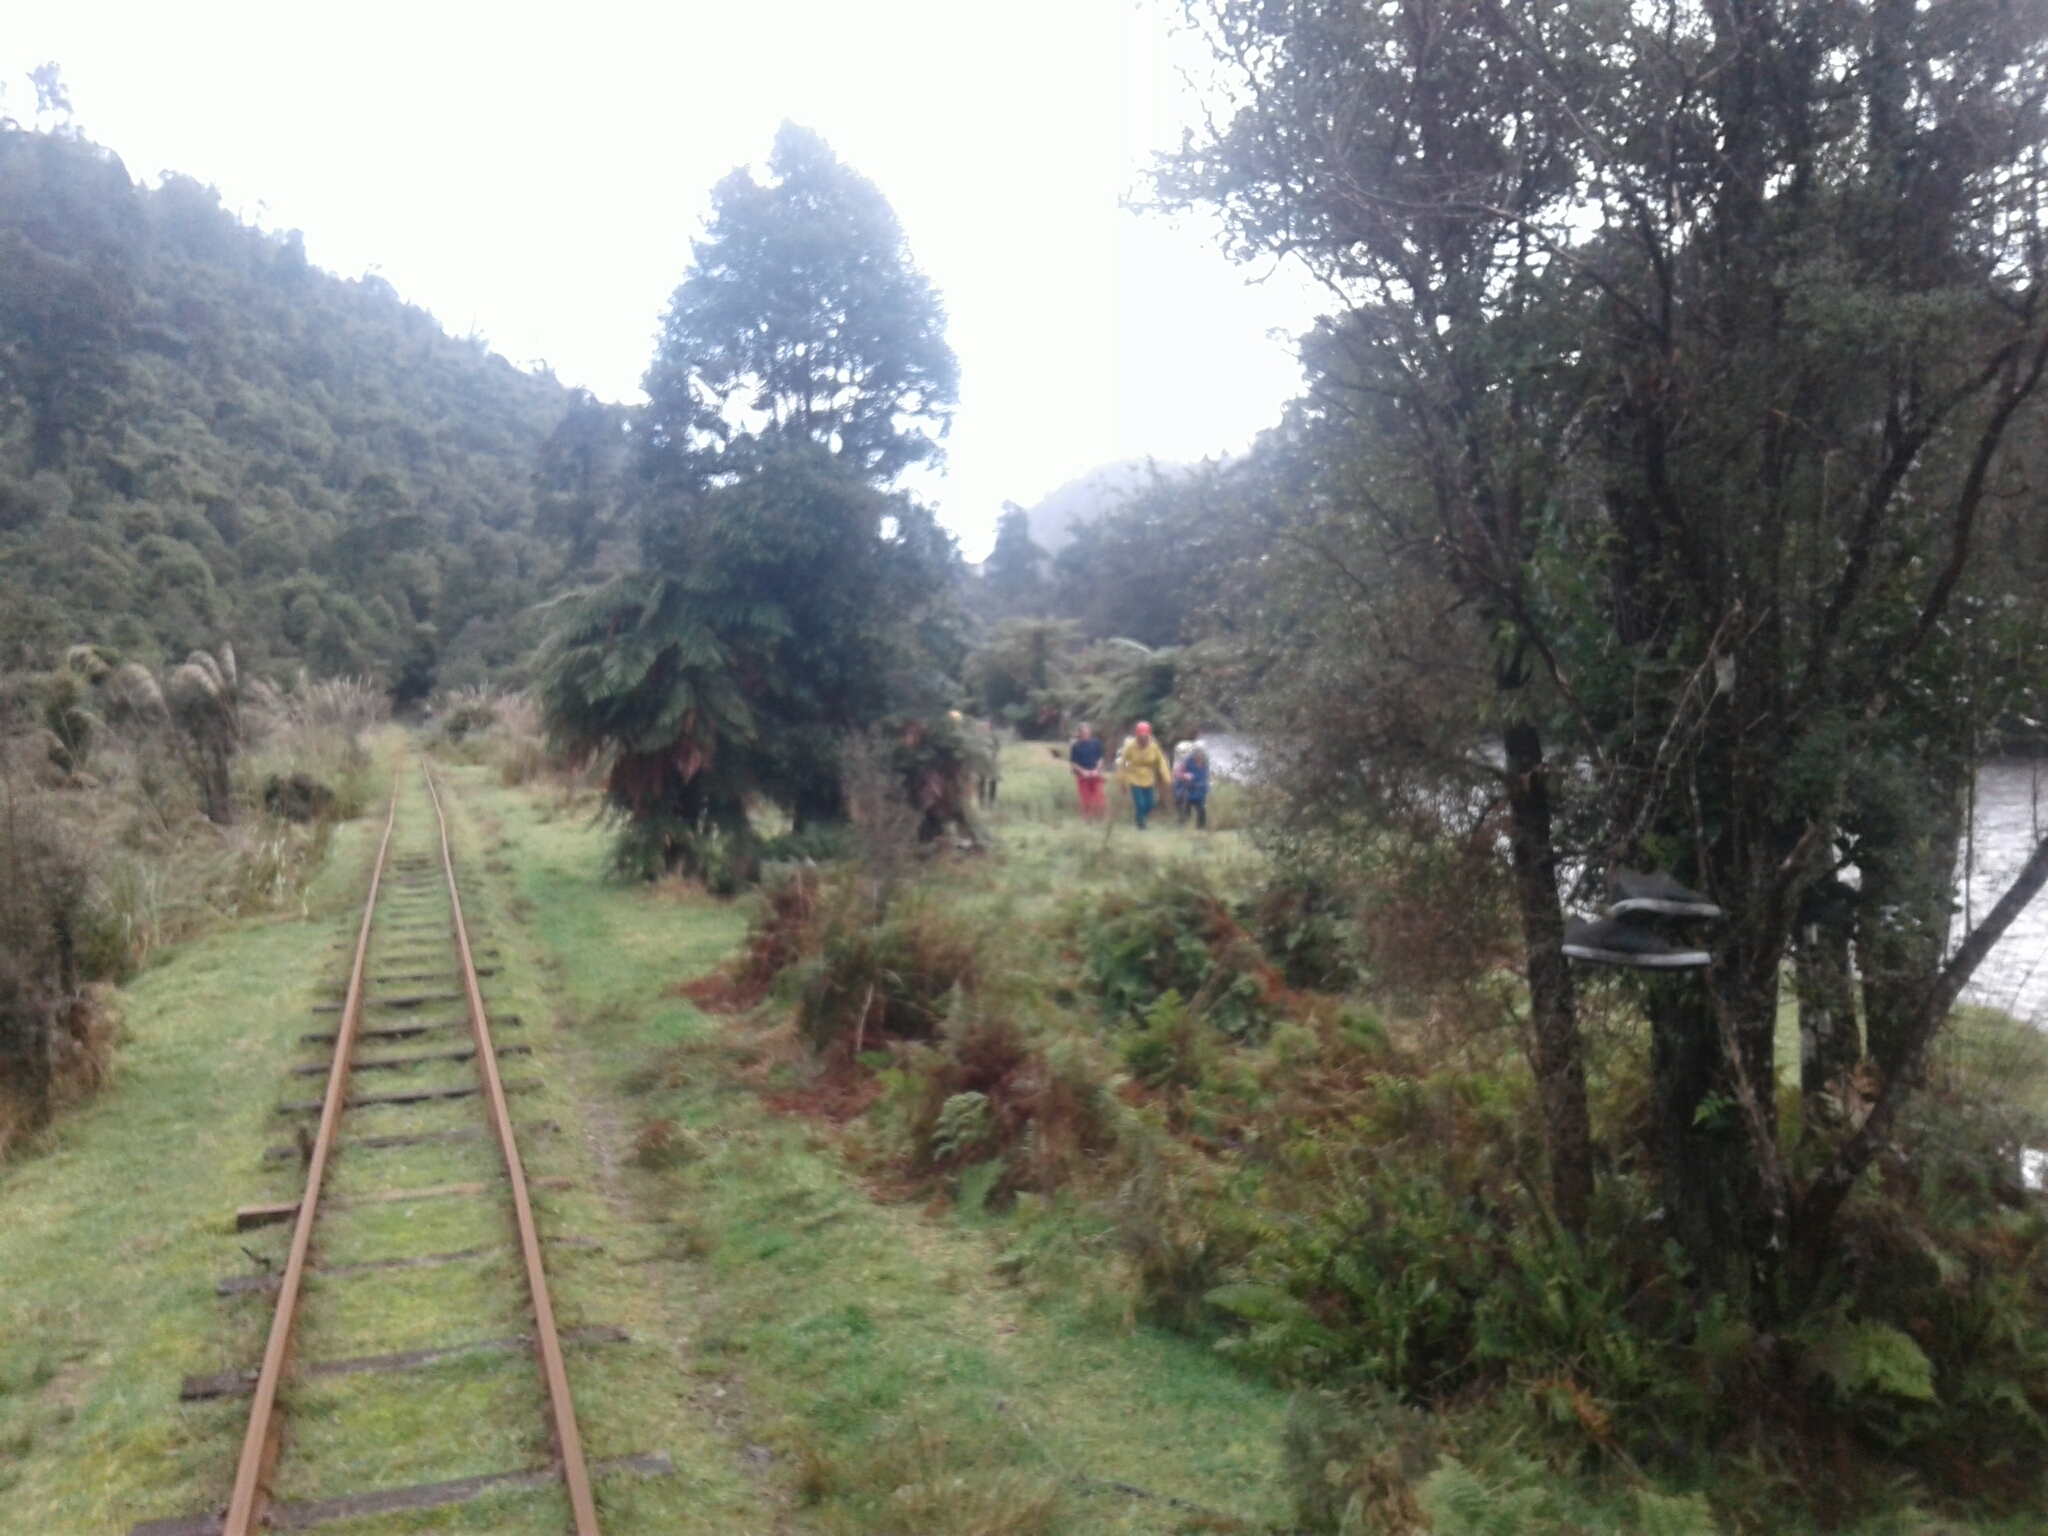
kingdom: Animalia
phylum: Chordata
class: Aves
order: Passeriformes
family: Rhipiduridae
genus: Rhipidura
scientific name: Rhipidura fuliginosa
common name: New zealand fantail
